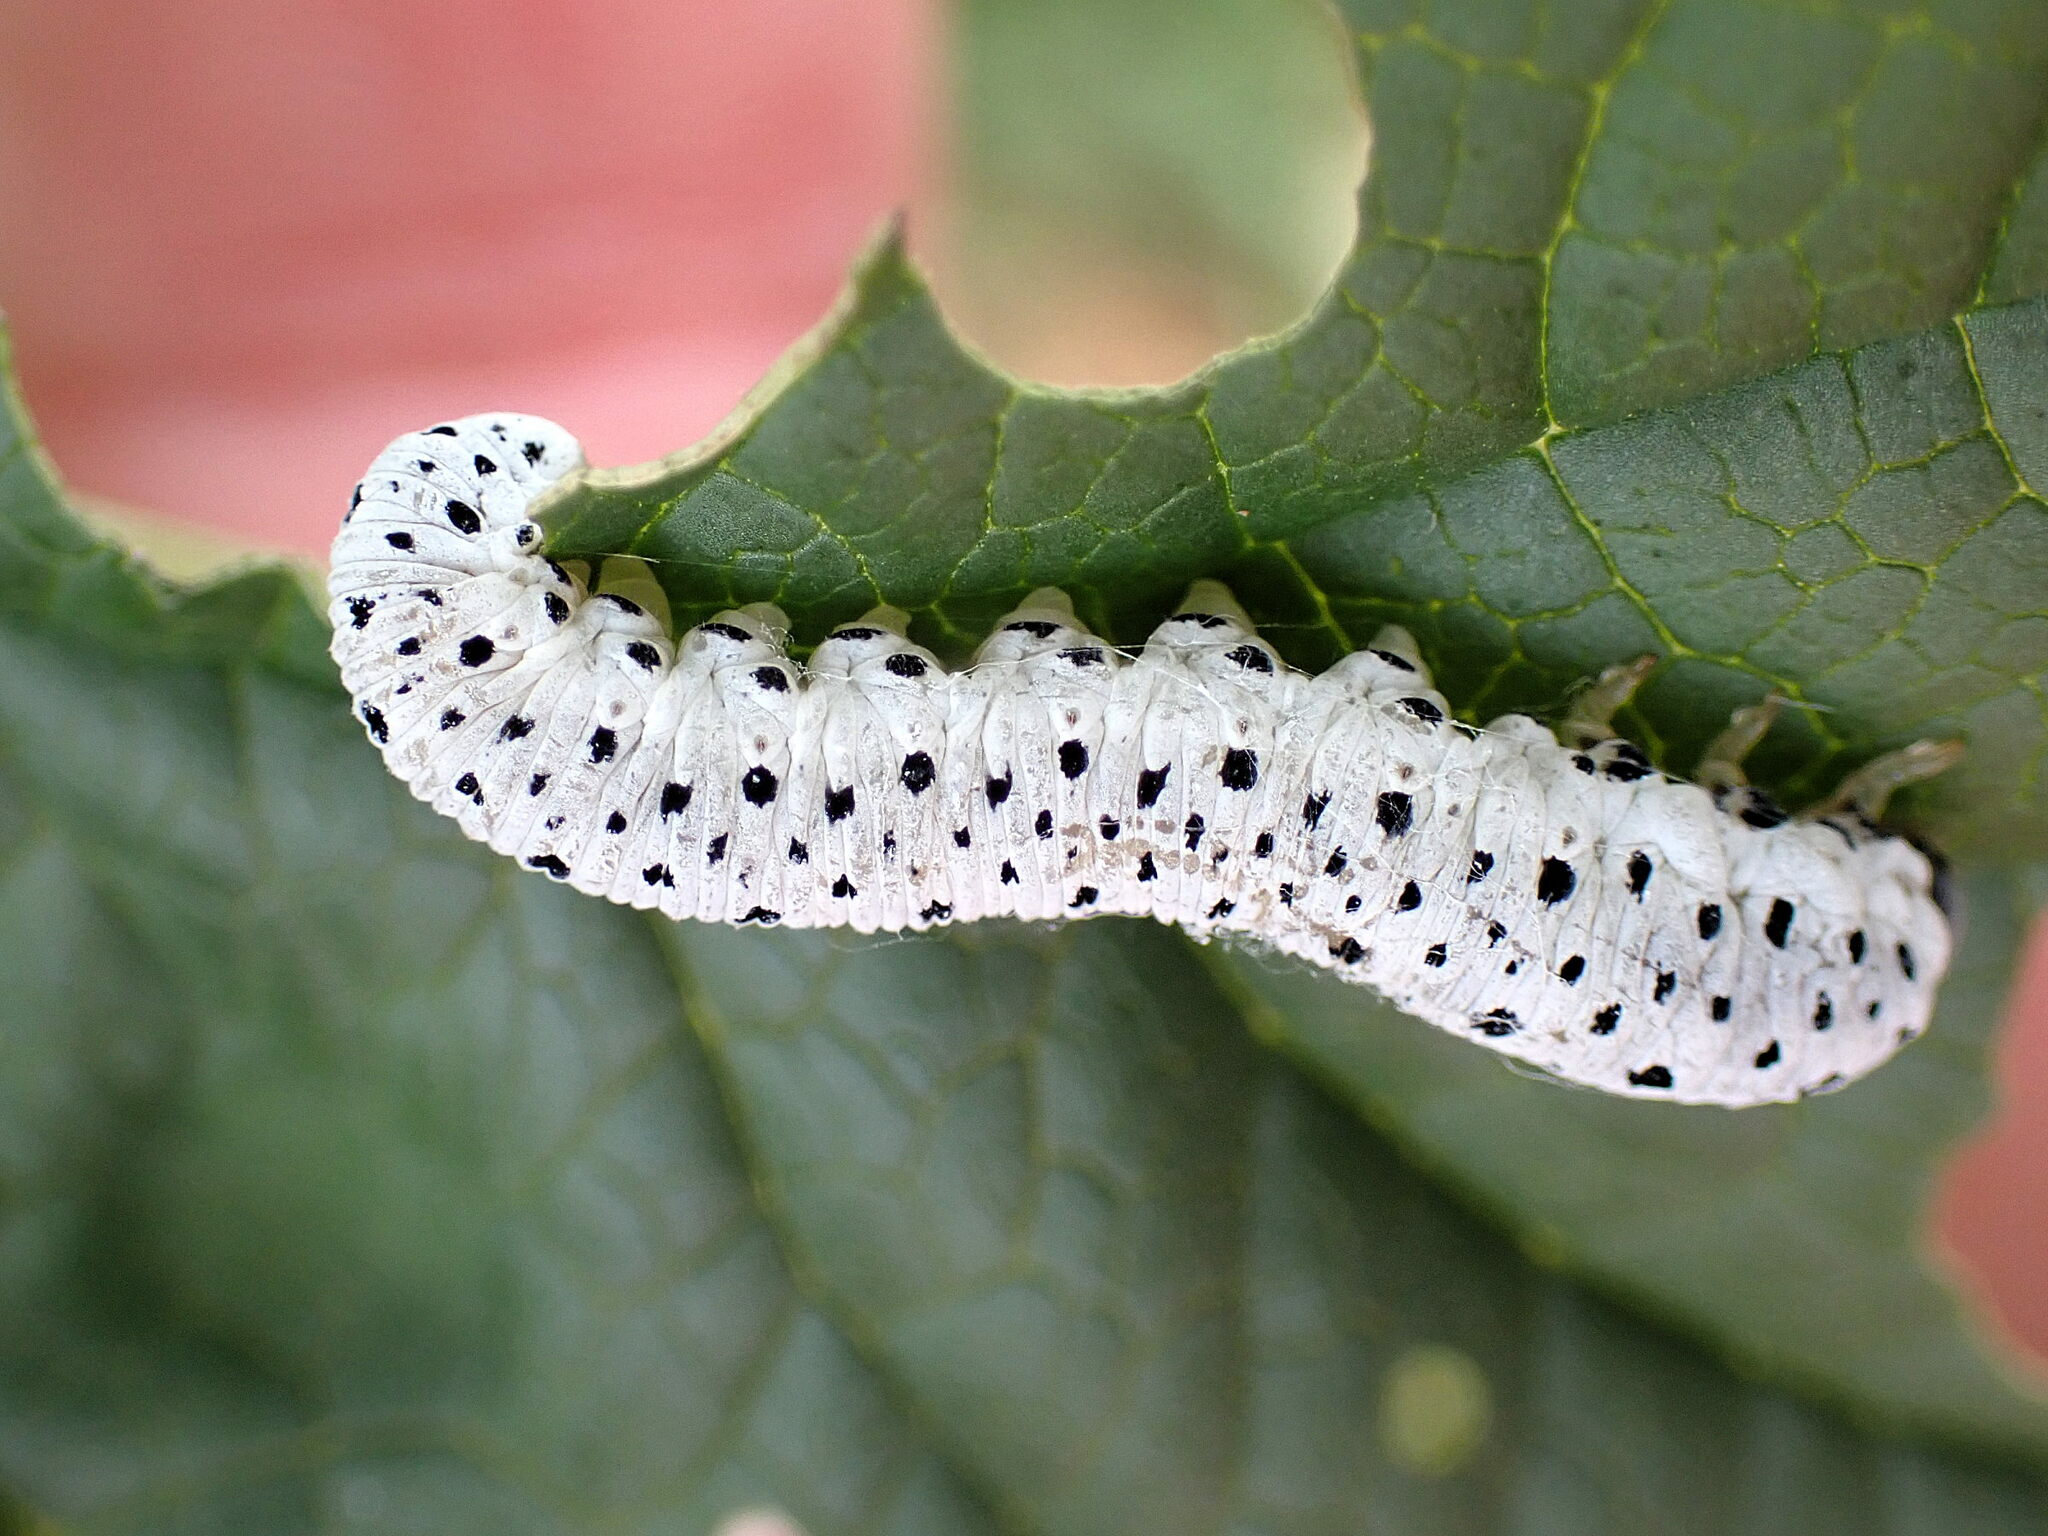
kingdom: Animalia
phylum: Arthropoda
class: Insecta
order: Hymenoptera
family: Tenthredinidae
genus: Tenthredo
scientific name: Tenthredo scrophulariae
